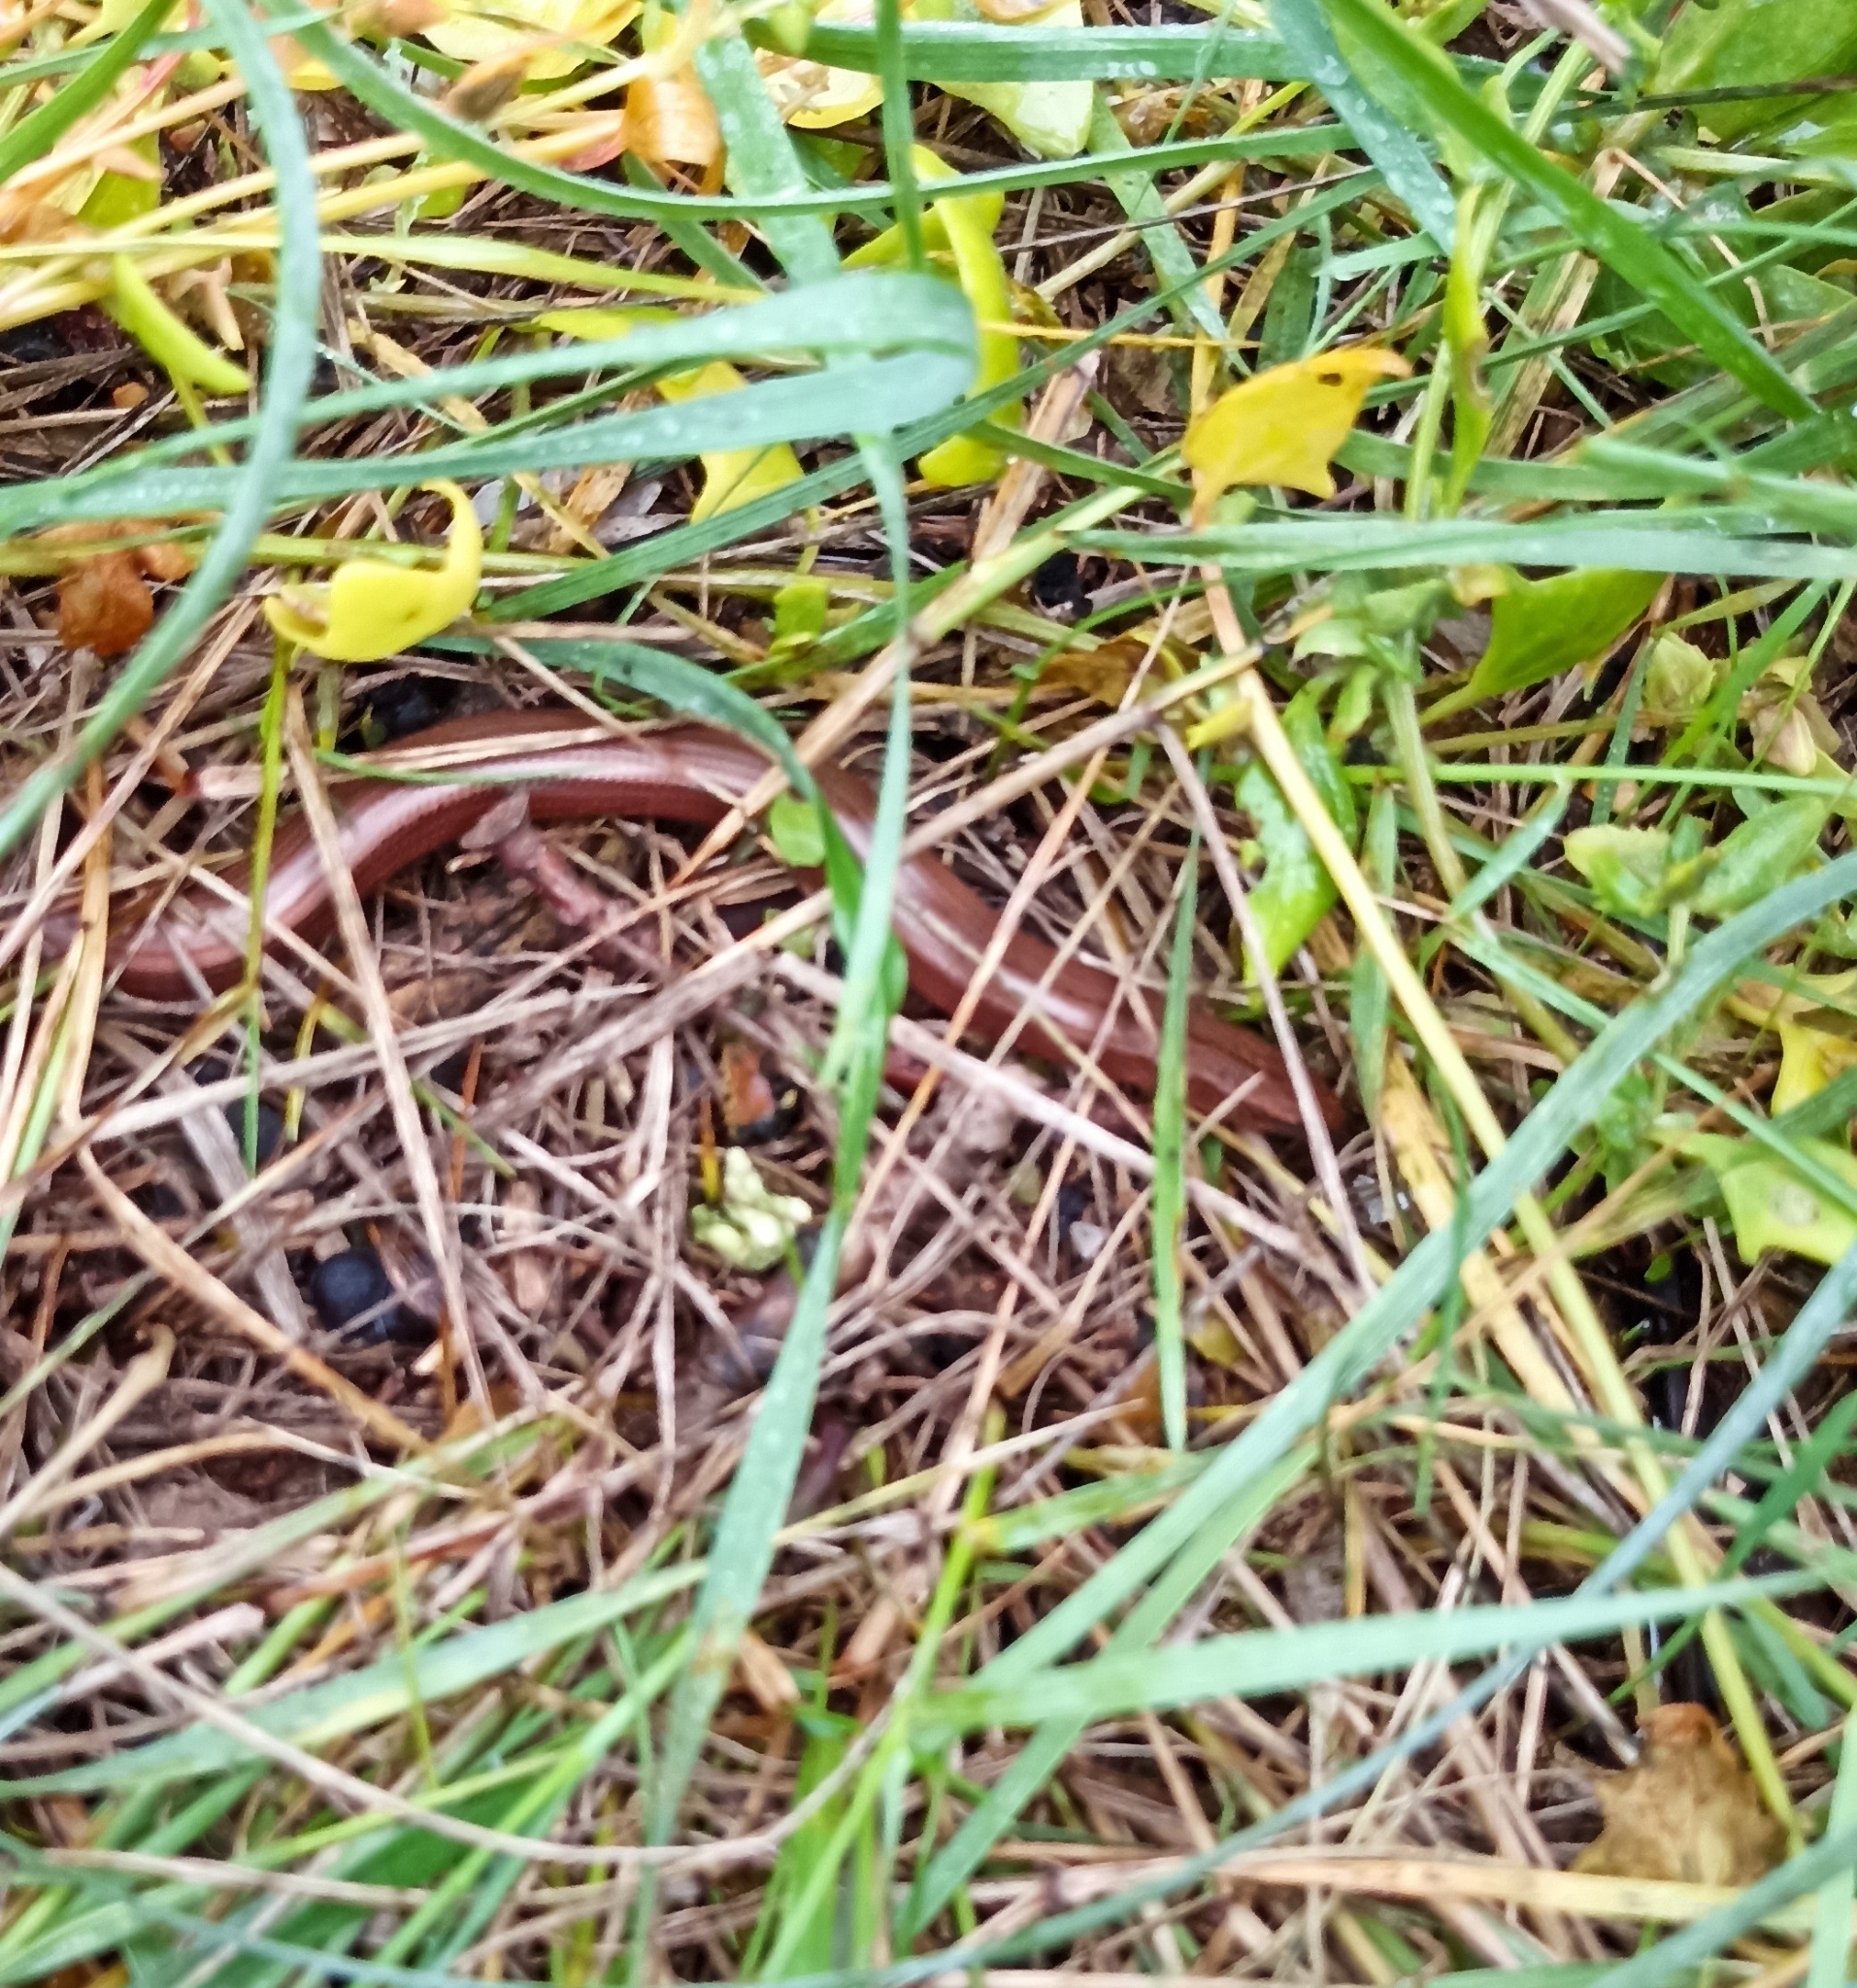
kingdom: Animalia
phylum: Chordata
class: Squamata
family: Anguidae
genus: Anguis
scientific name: Anguis fragilis
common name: Slow worm
